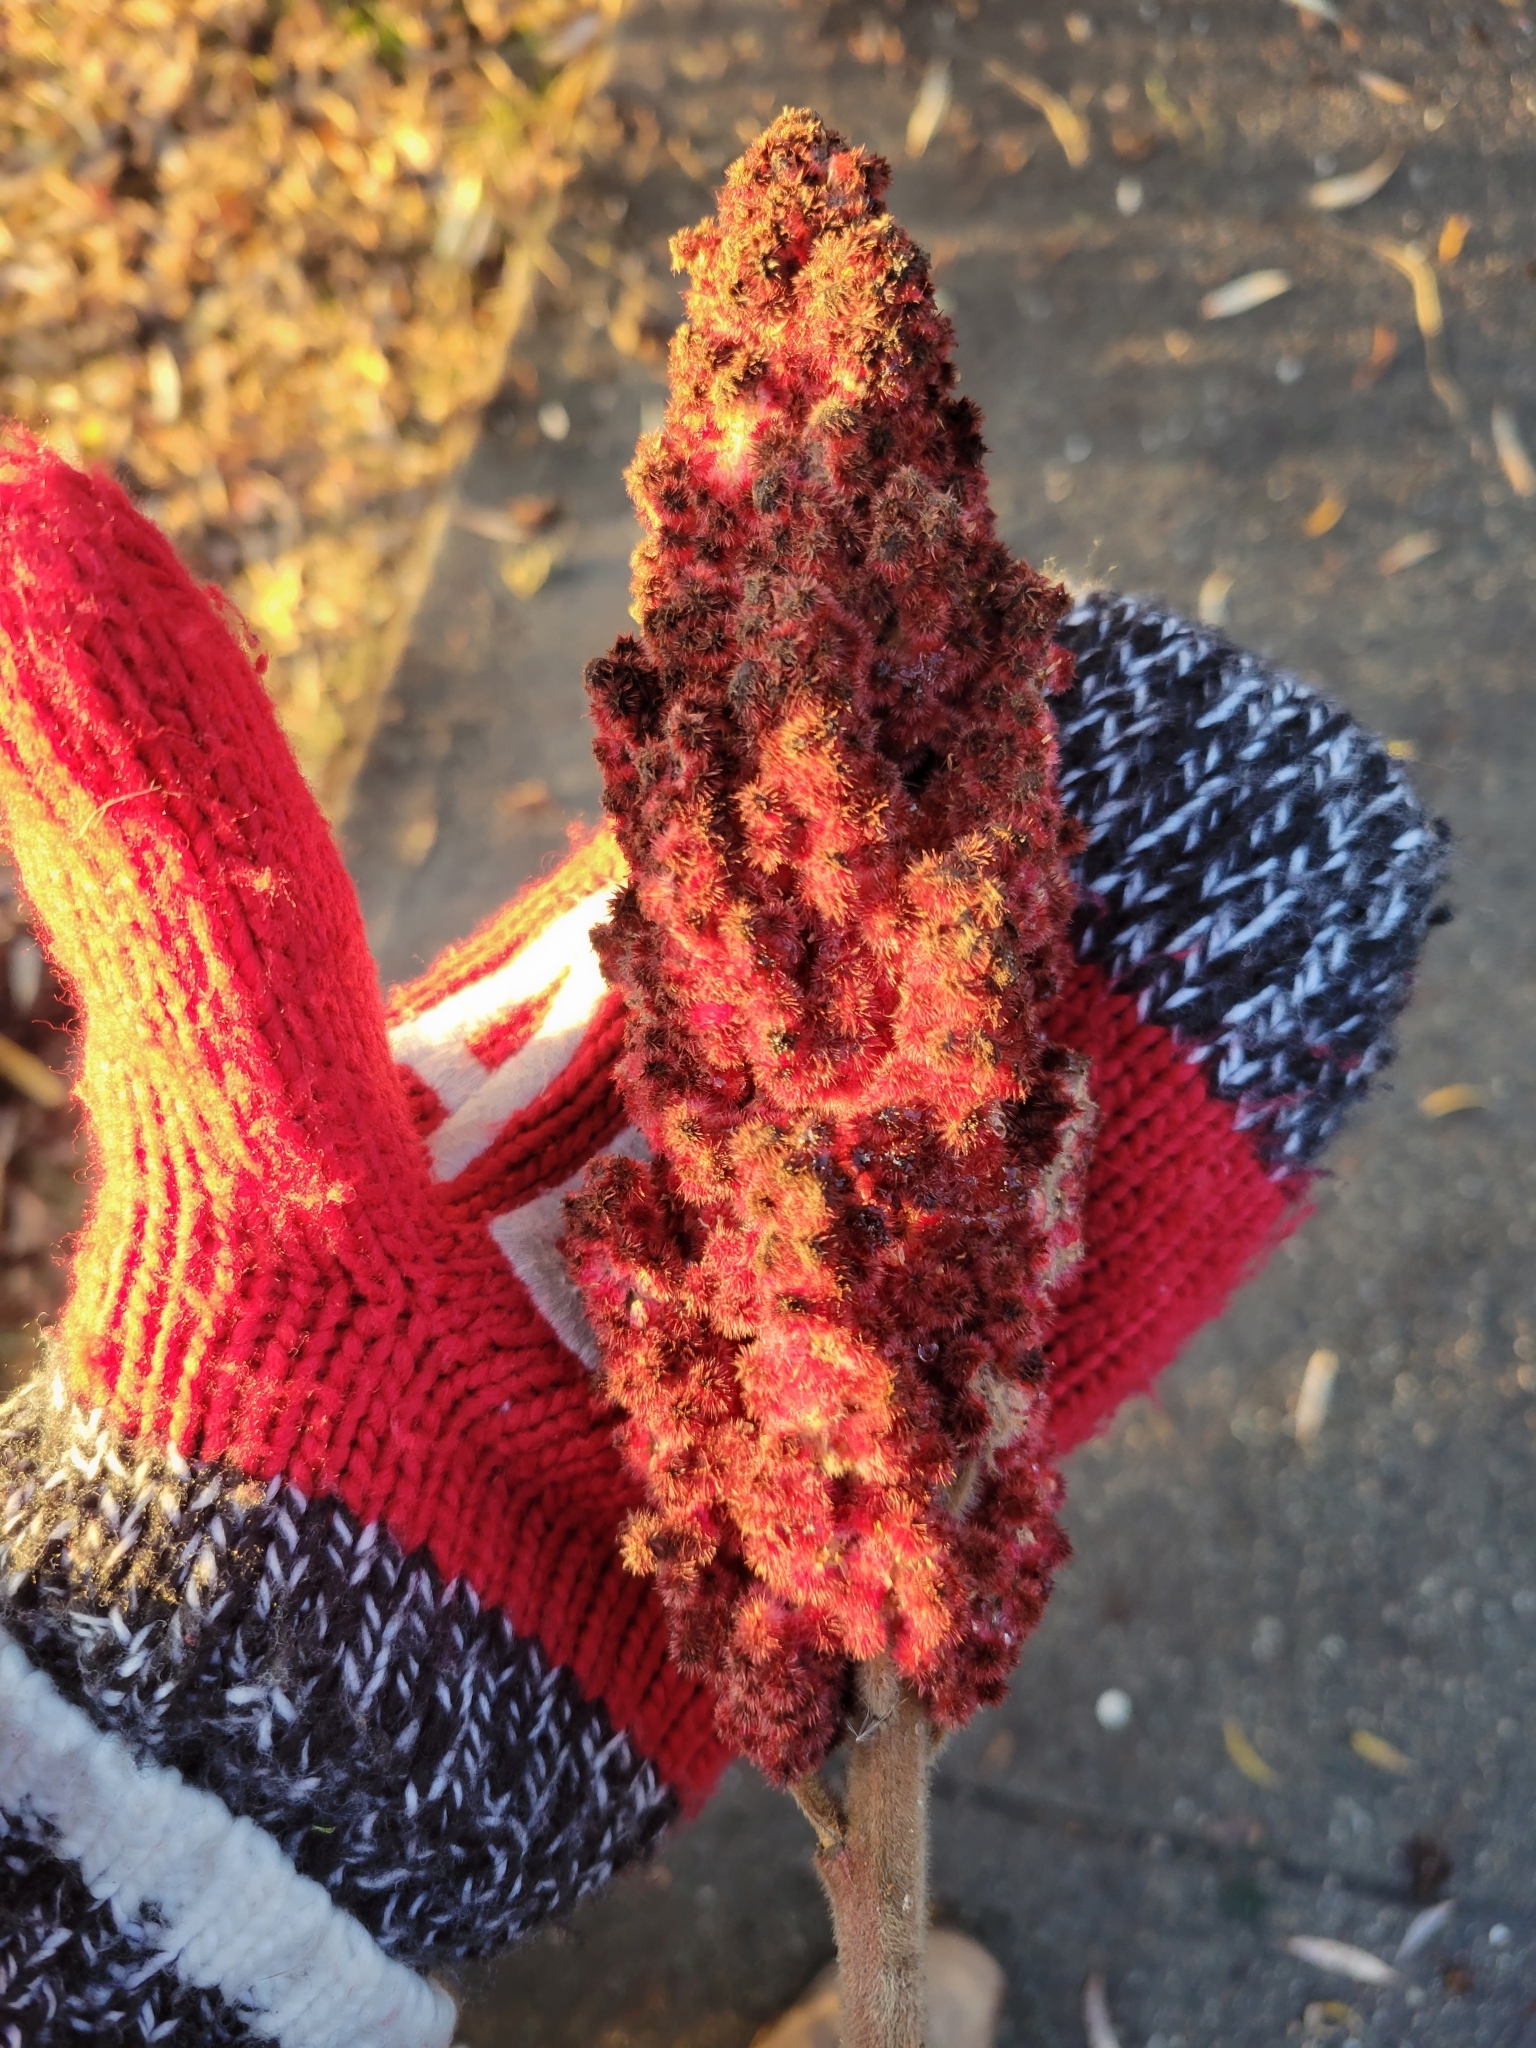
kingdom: Plantae
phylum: Tracheophyta
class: Magnoliopsida
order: Sapindales
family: Anacardiaceae
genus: Rhus
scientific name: Rhus typhina
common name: Staghorn sumac
